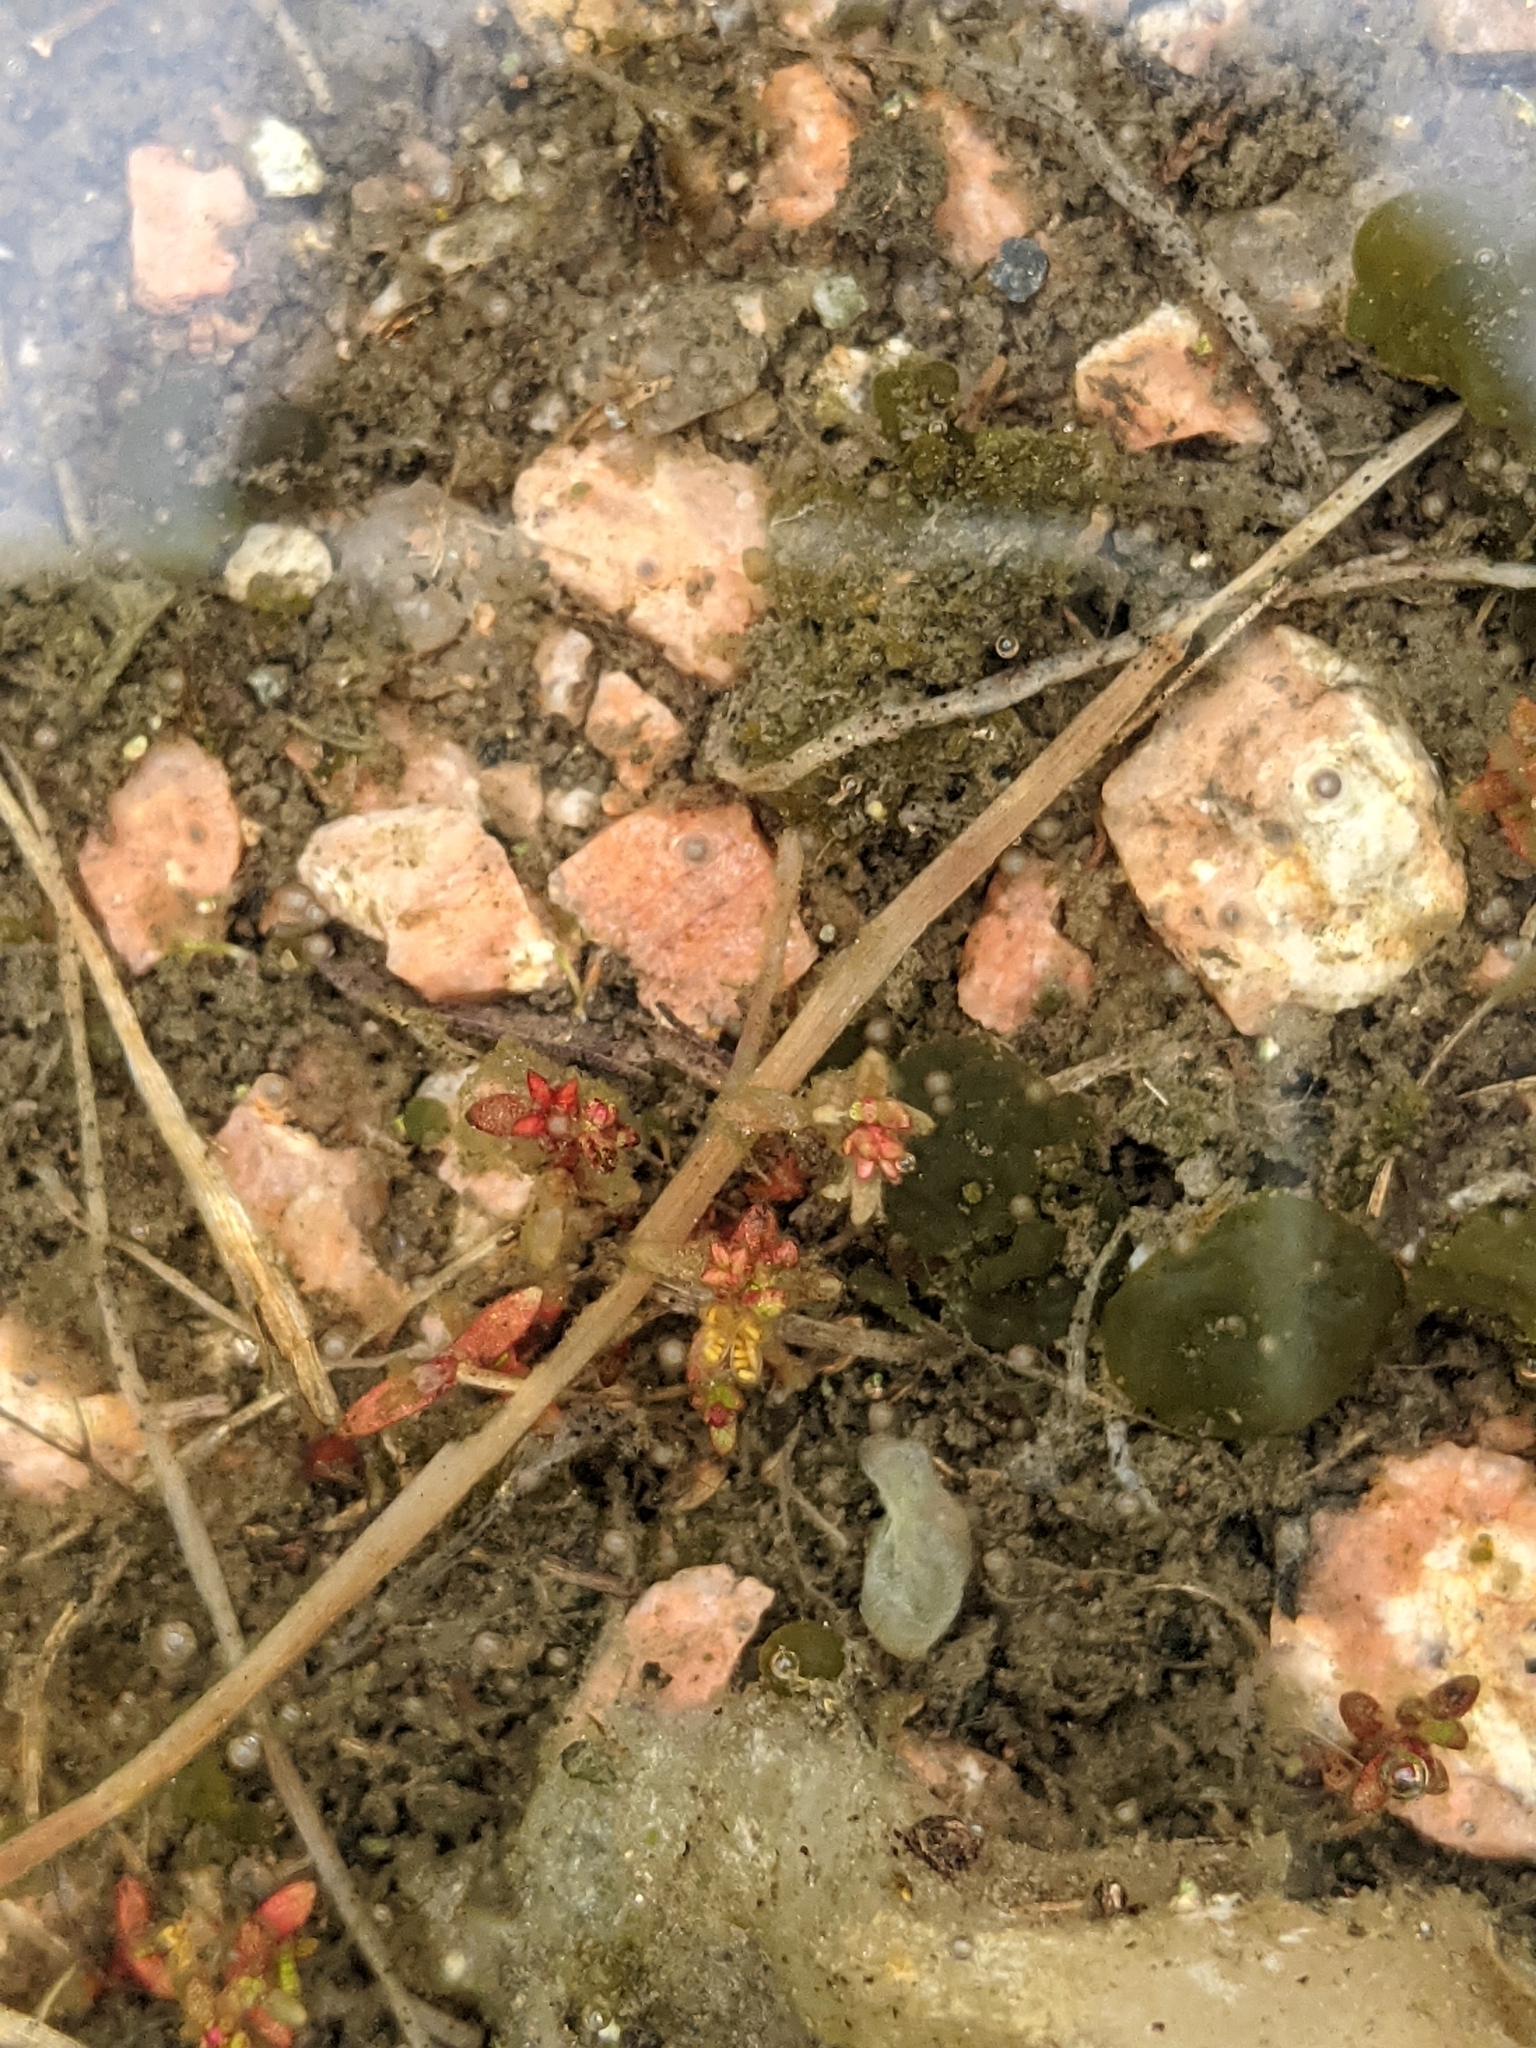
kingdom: Plantae
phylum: Tracheophyta
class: Magnoliopsida
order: Saxifragales
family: Crassulaceae
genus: Crassula
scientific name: Crassula aquatica
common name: Pigmyweed
